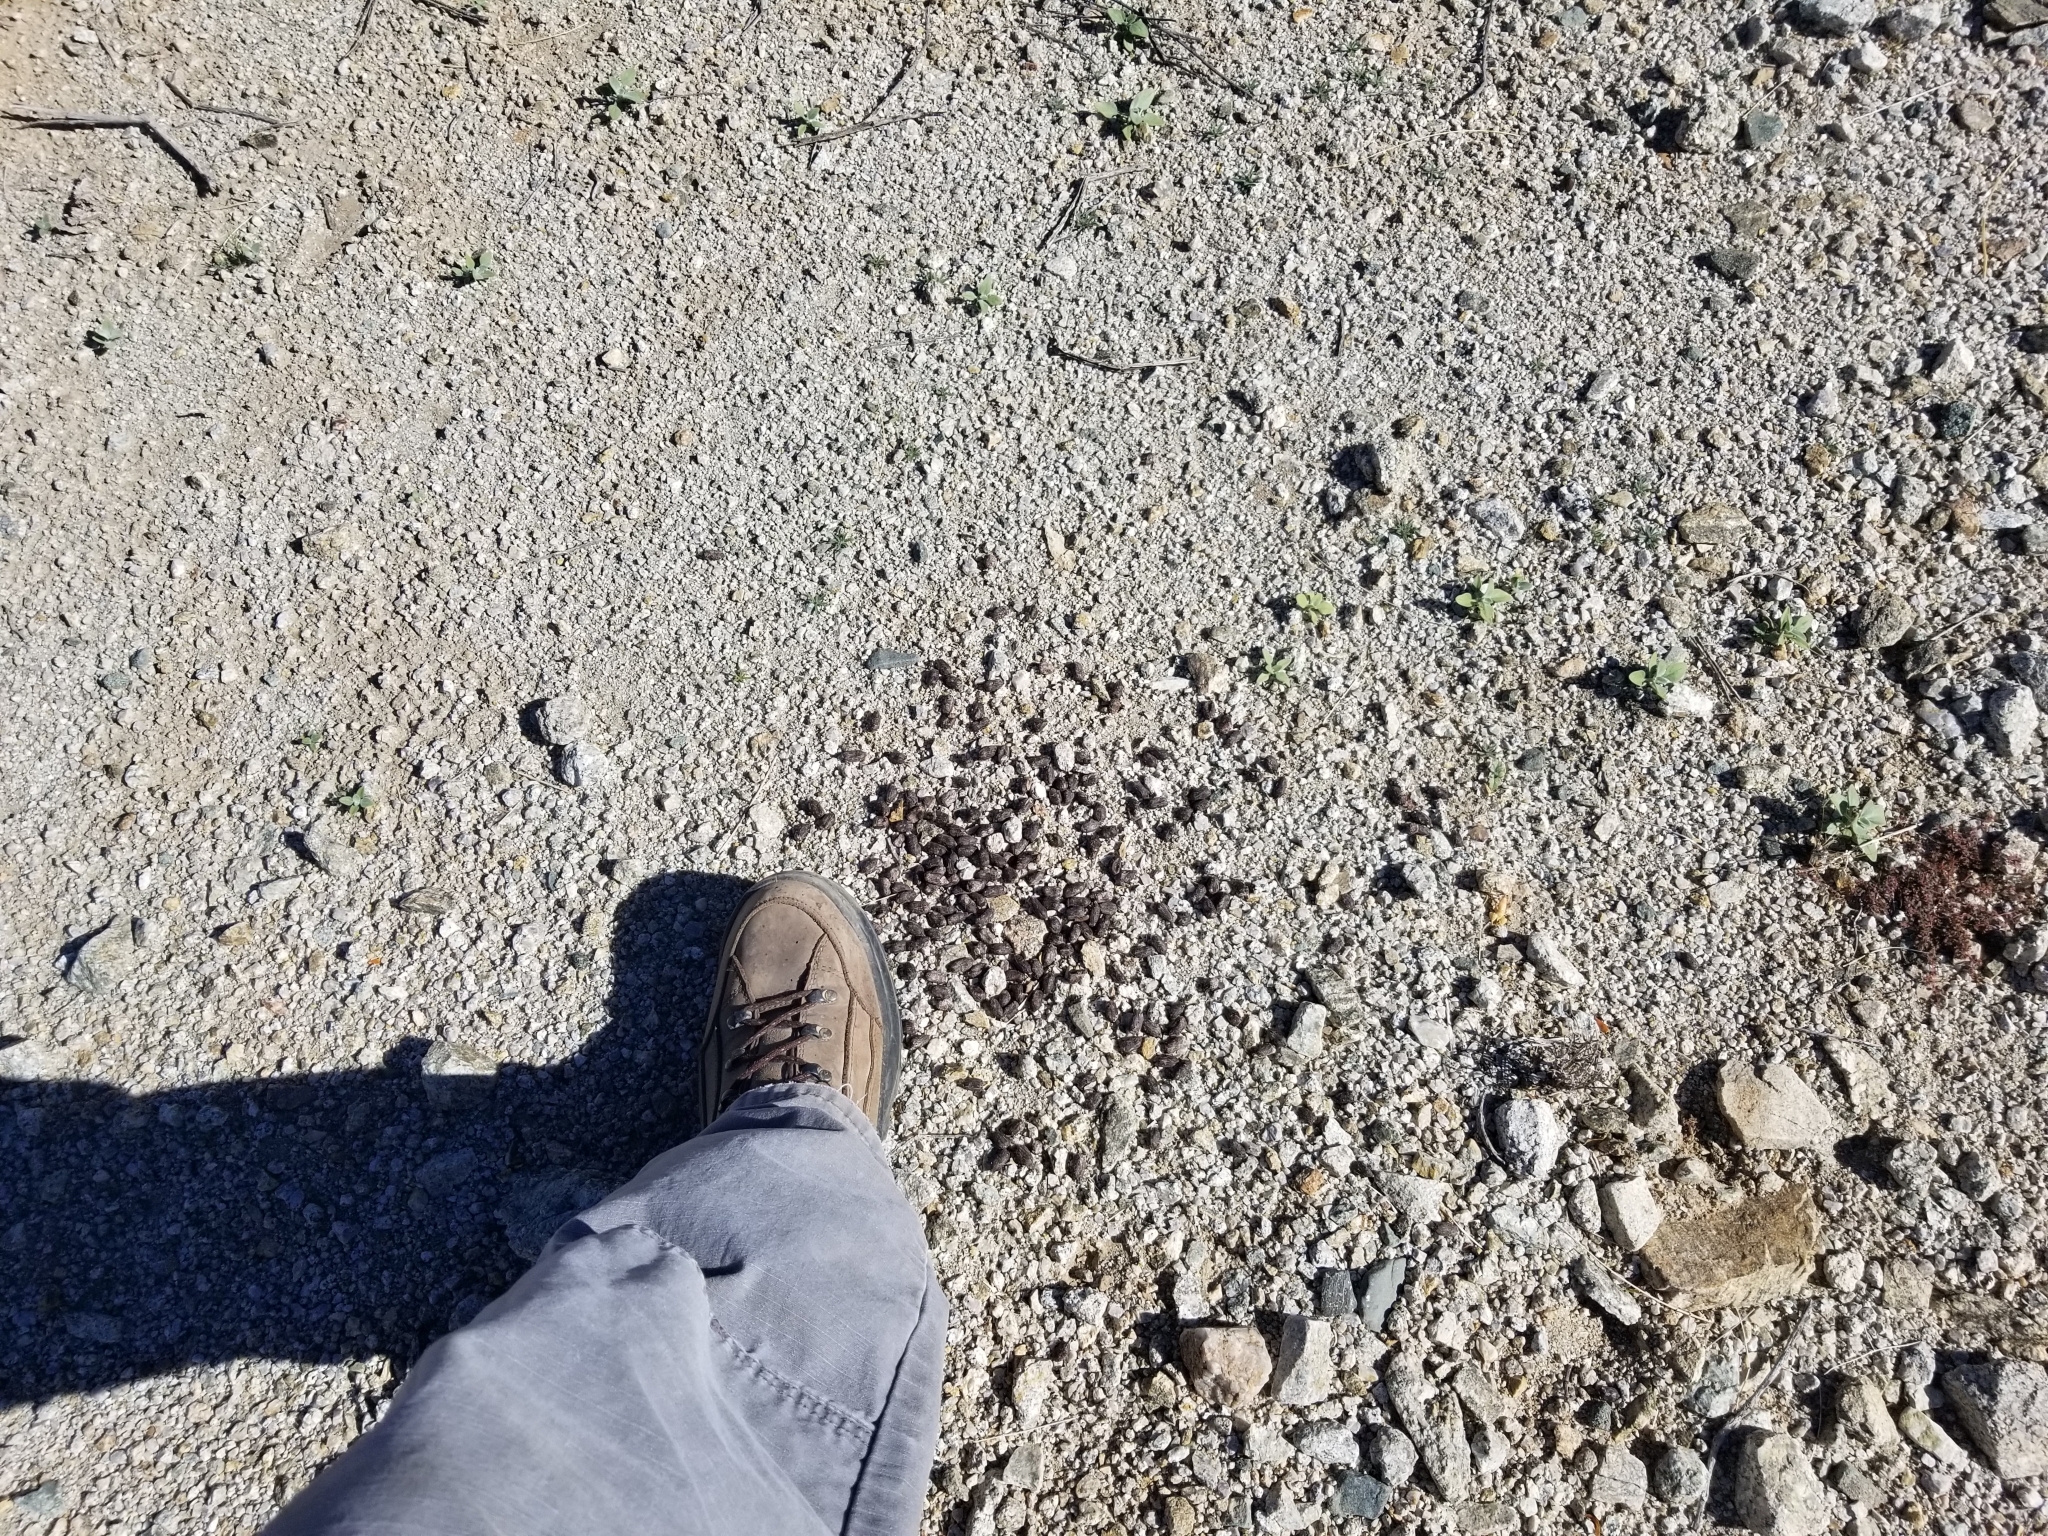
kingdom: Animalia
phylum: Chordata
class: Mammalia
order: Artiodactyla
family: Cervidae
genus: Odocoileus
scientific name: Odocoileus hemionus
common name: Mule deer
